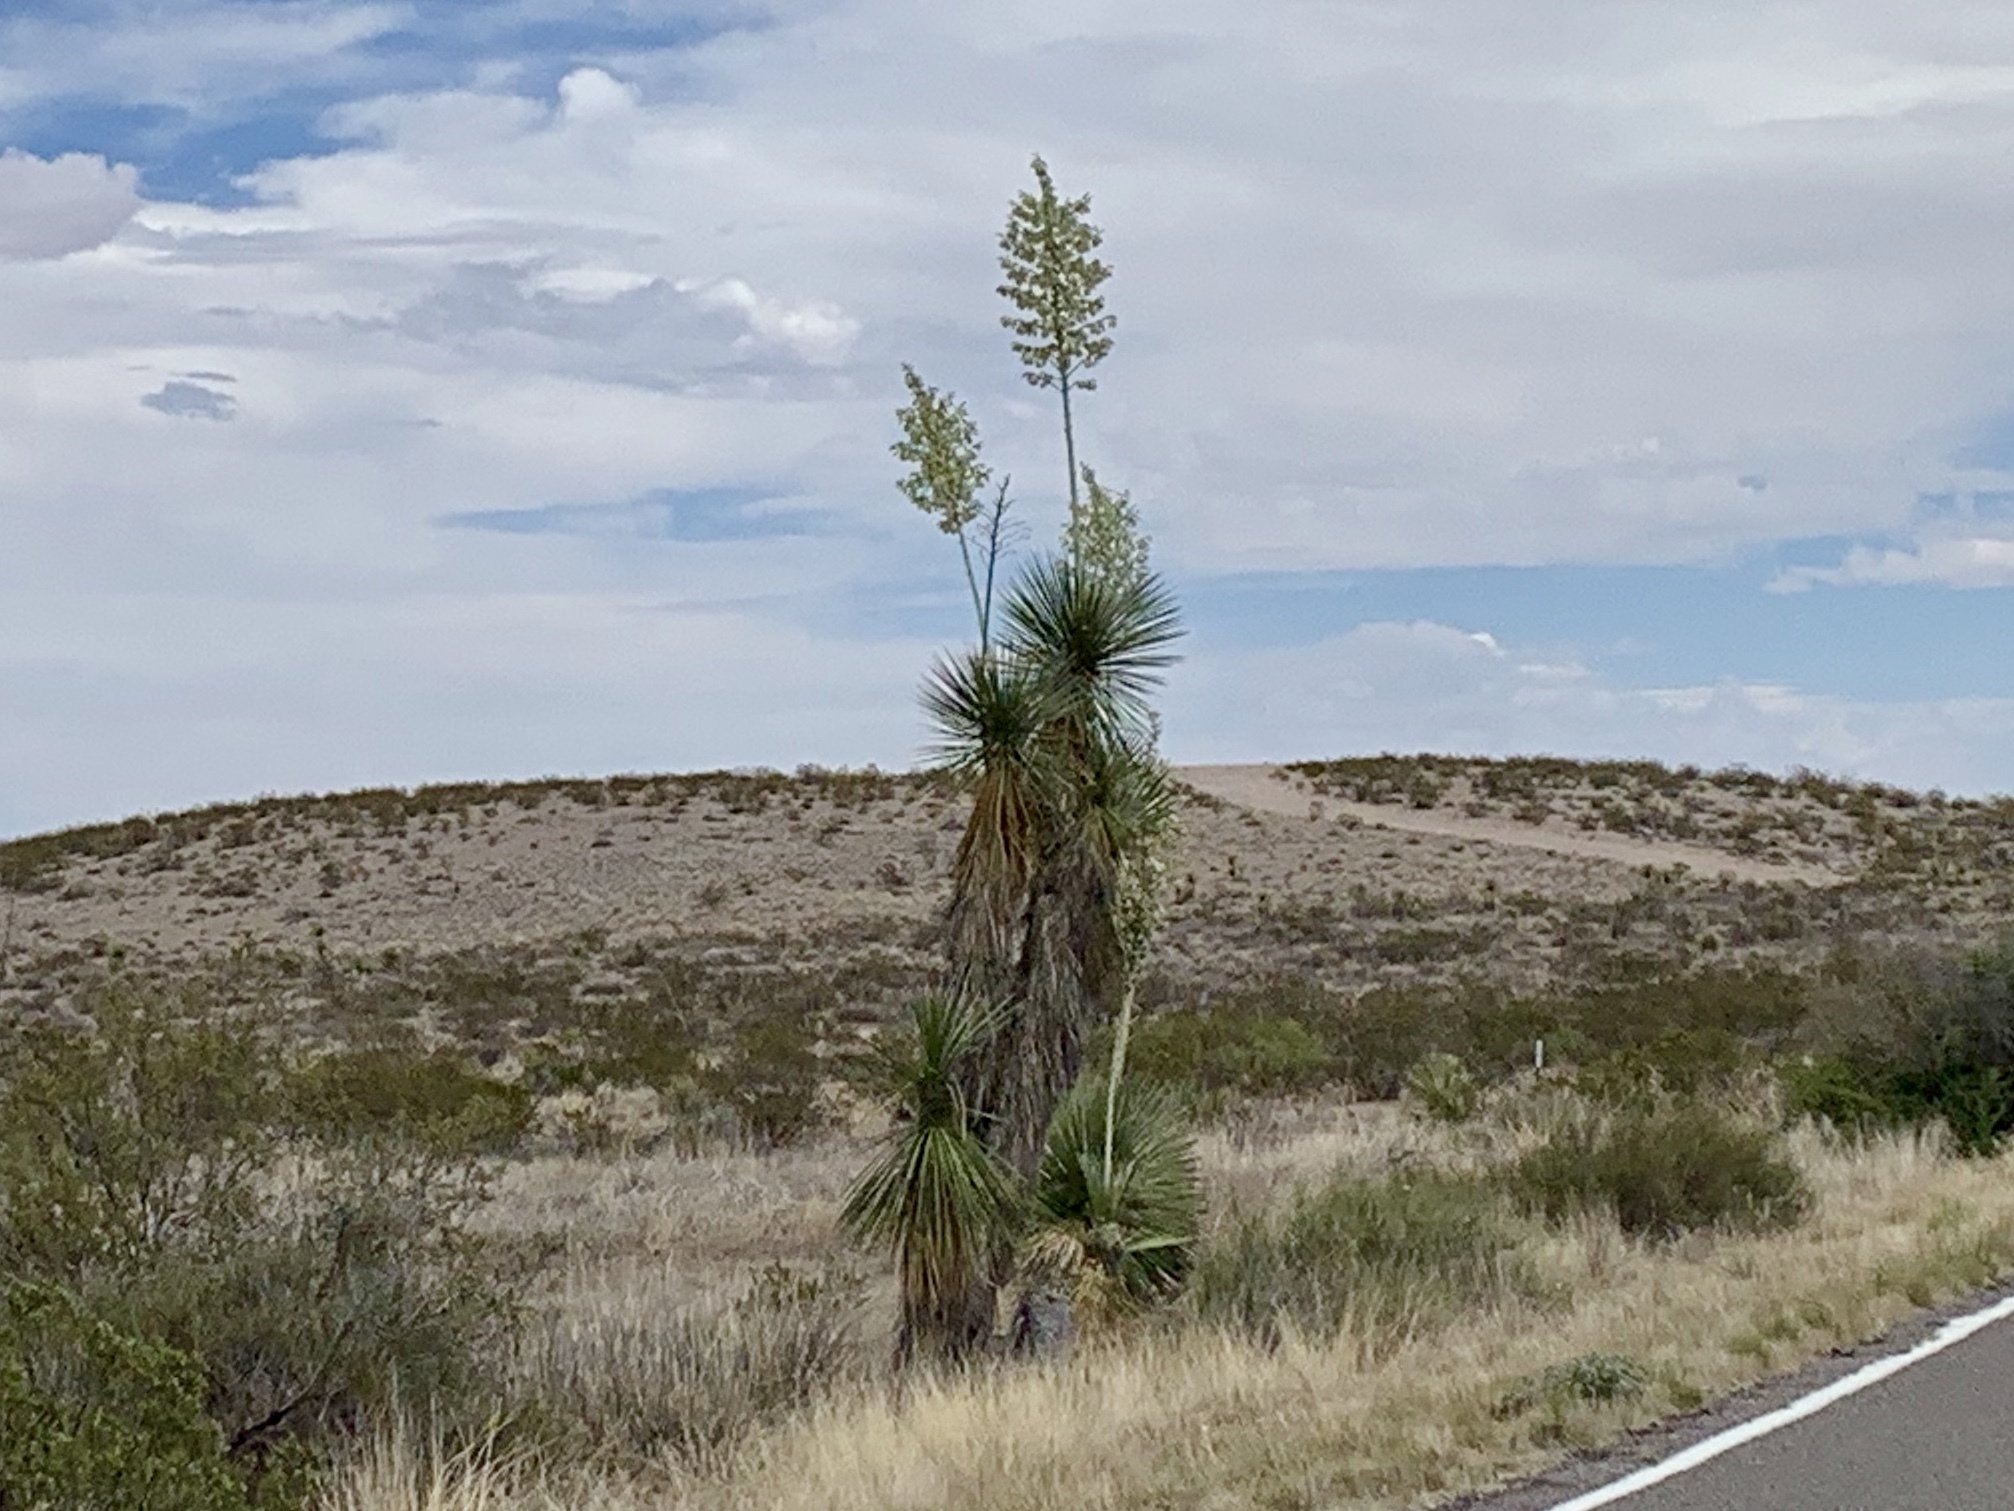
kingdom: Plantae
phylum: Tracheophyta
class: Liliopsida
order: Asparagales
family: Asparagaceae
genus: Yucca
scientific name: Yucca elata
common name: Palmella
